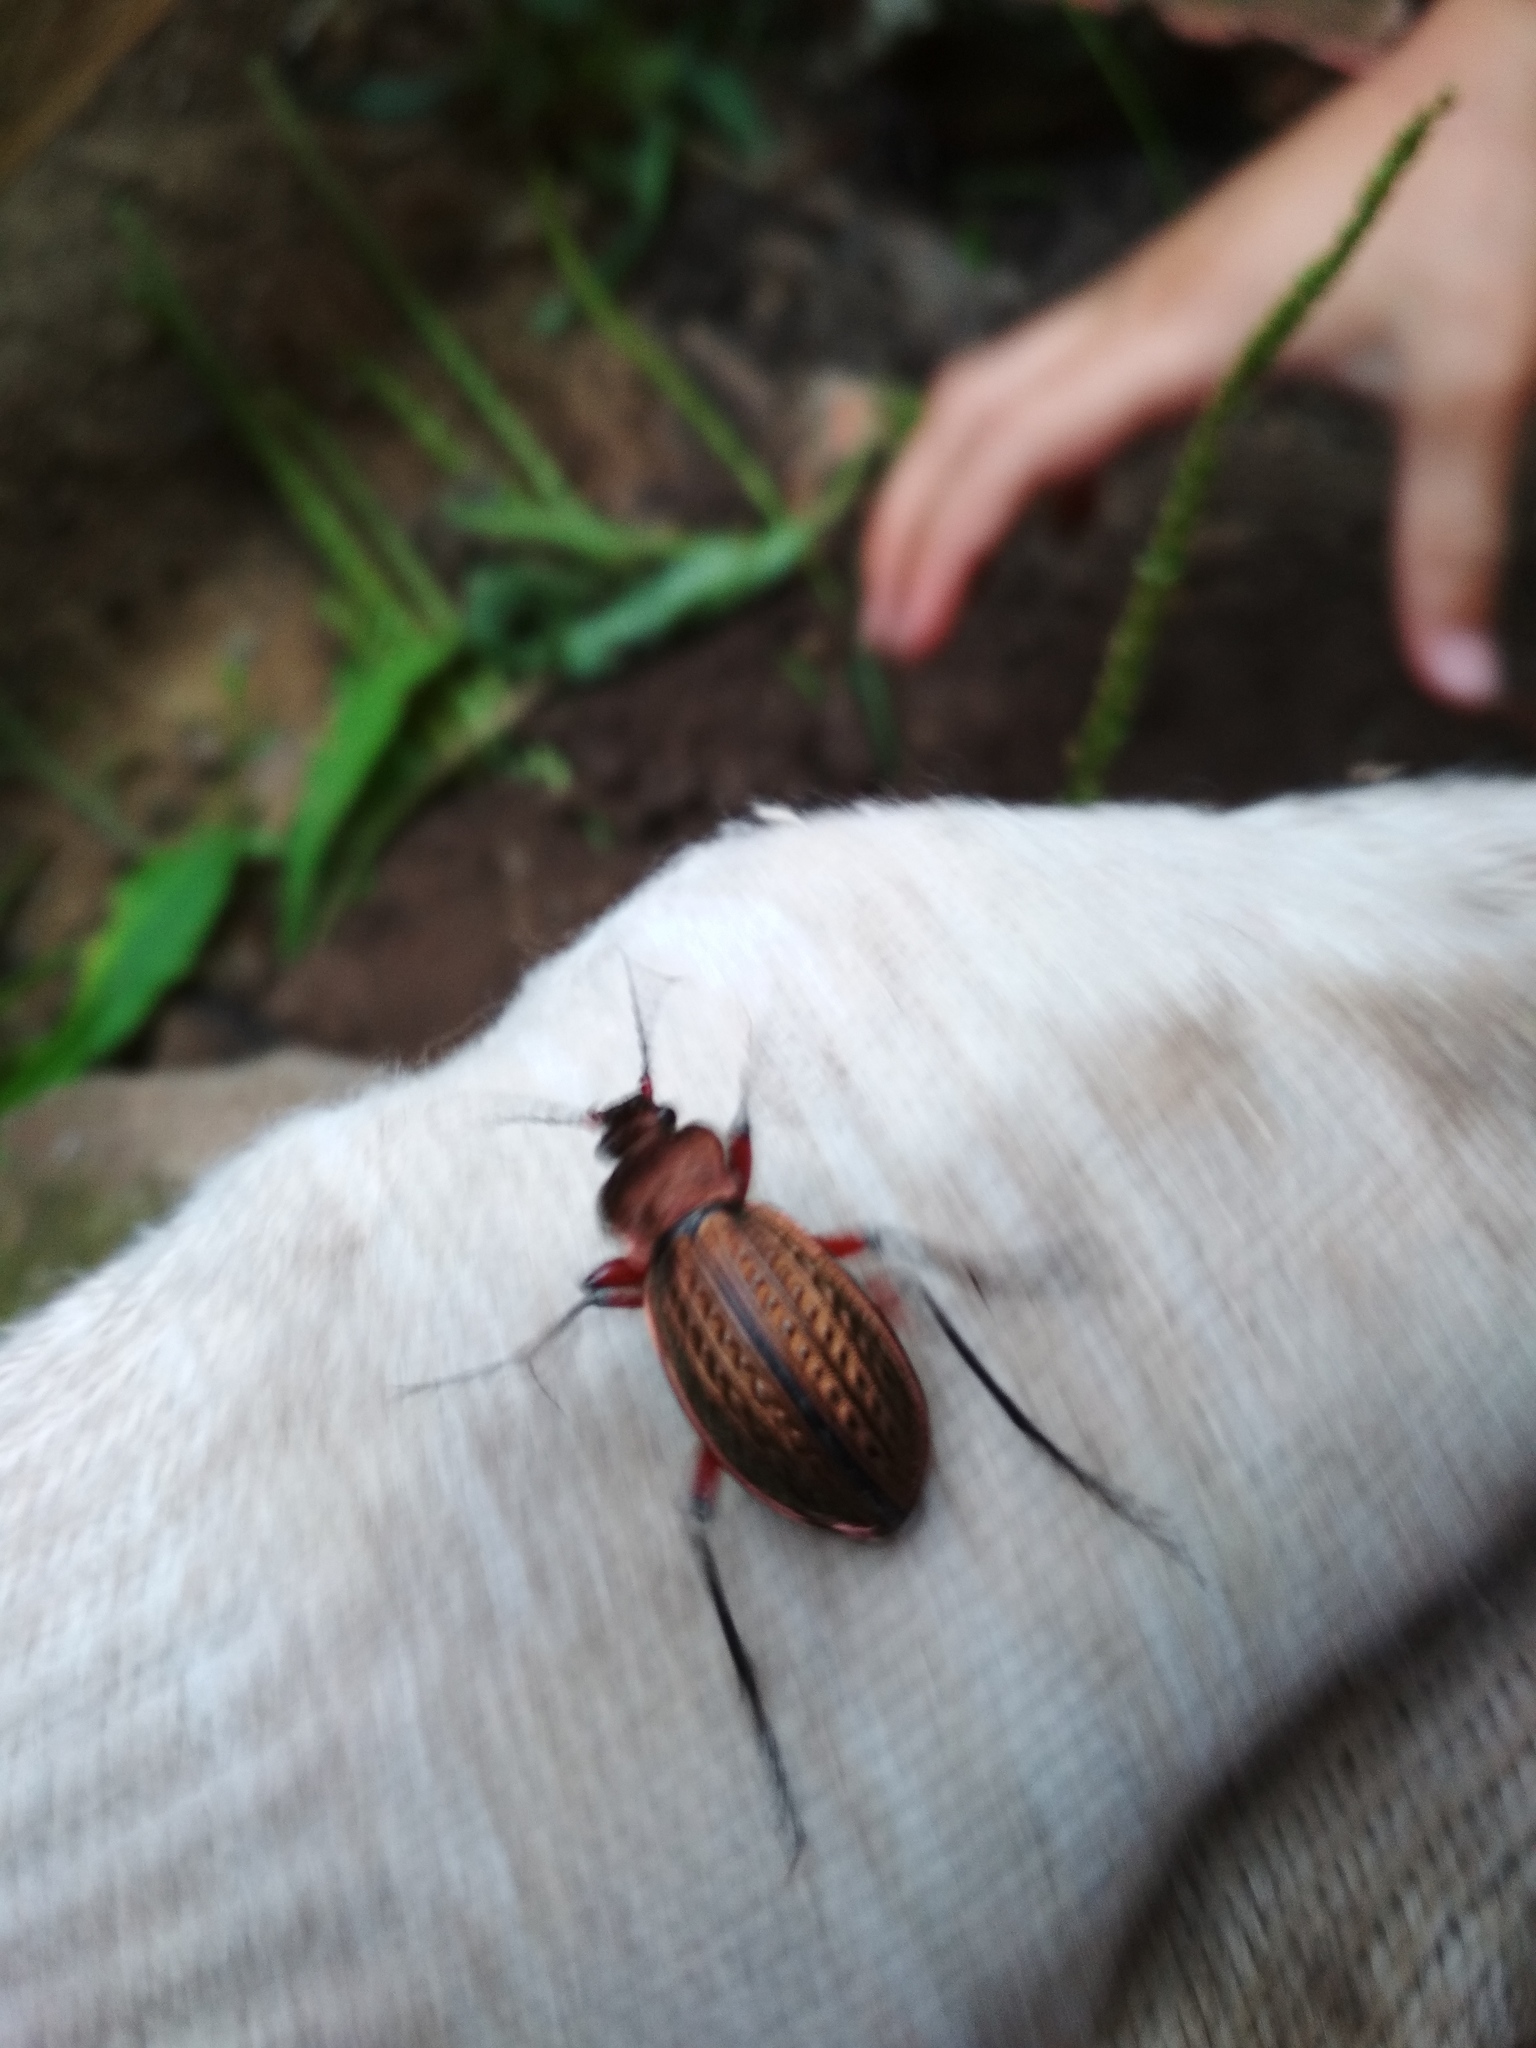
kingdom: Animalia
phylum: Arthropoda
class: Insecta
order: Coleoptera
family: Carabidae
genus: Carabus
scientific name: Carabus cancellatus
